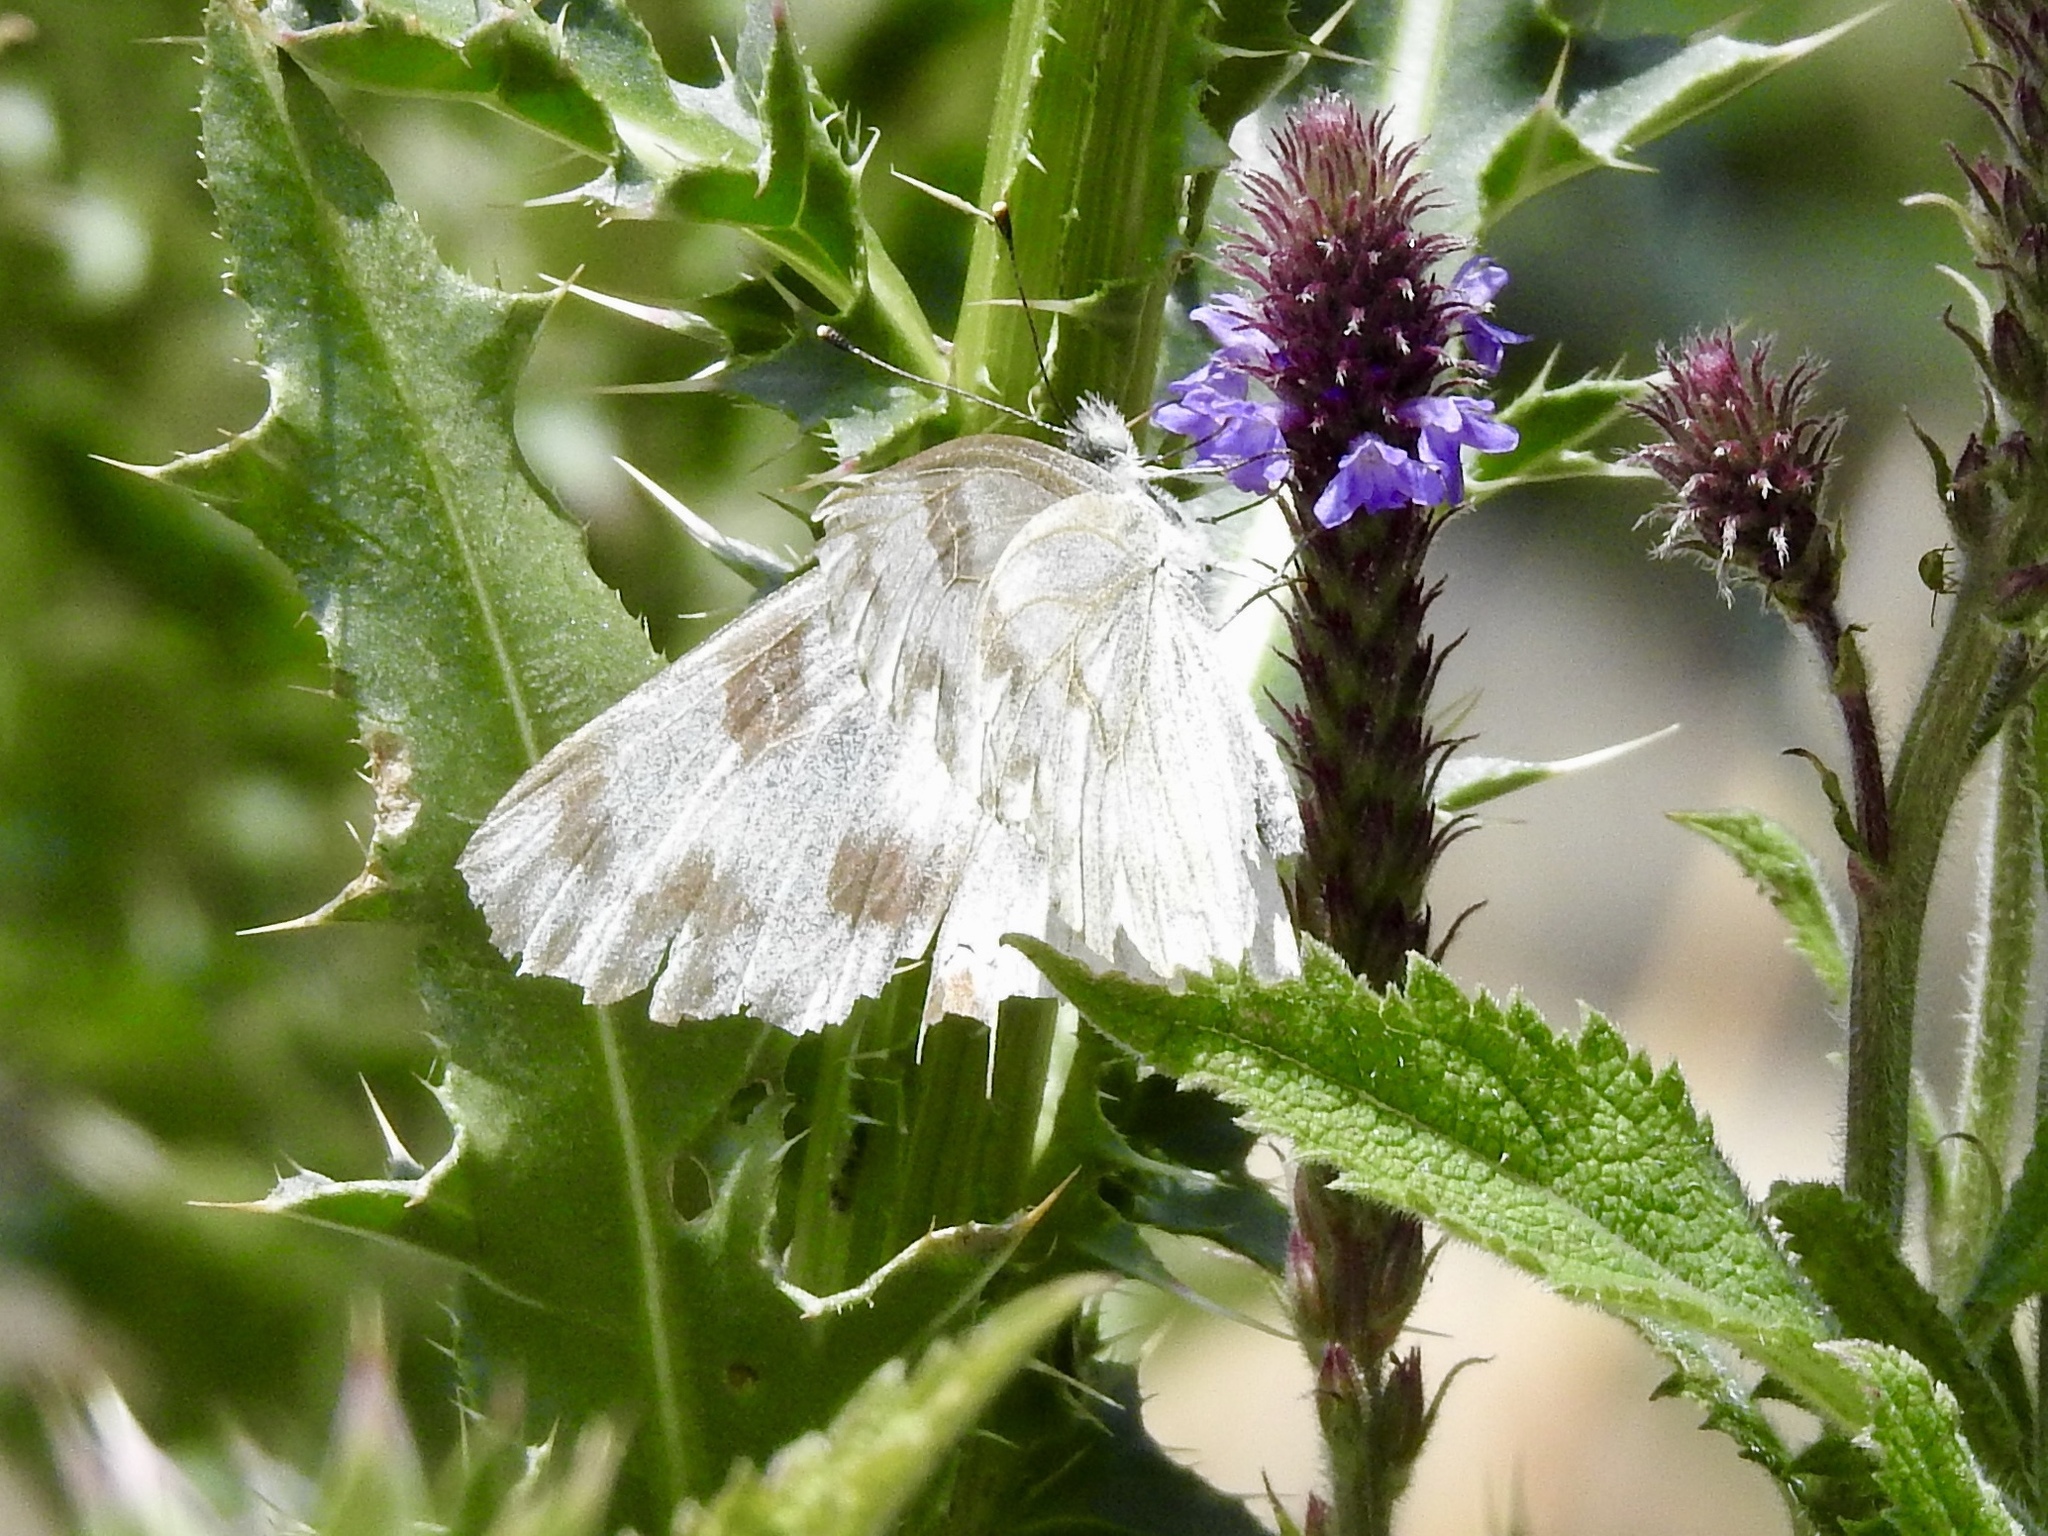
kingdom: Animalia
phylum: Arthropoda
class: Insecta
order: Lepidoptera
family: Pieridae
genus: Pontia
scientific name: Pontia protodice
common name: Checkered white
